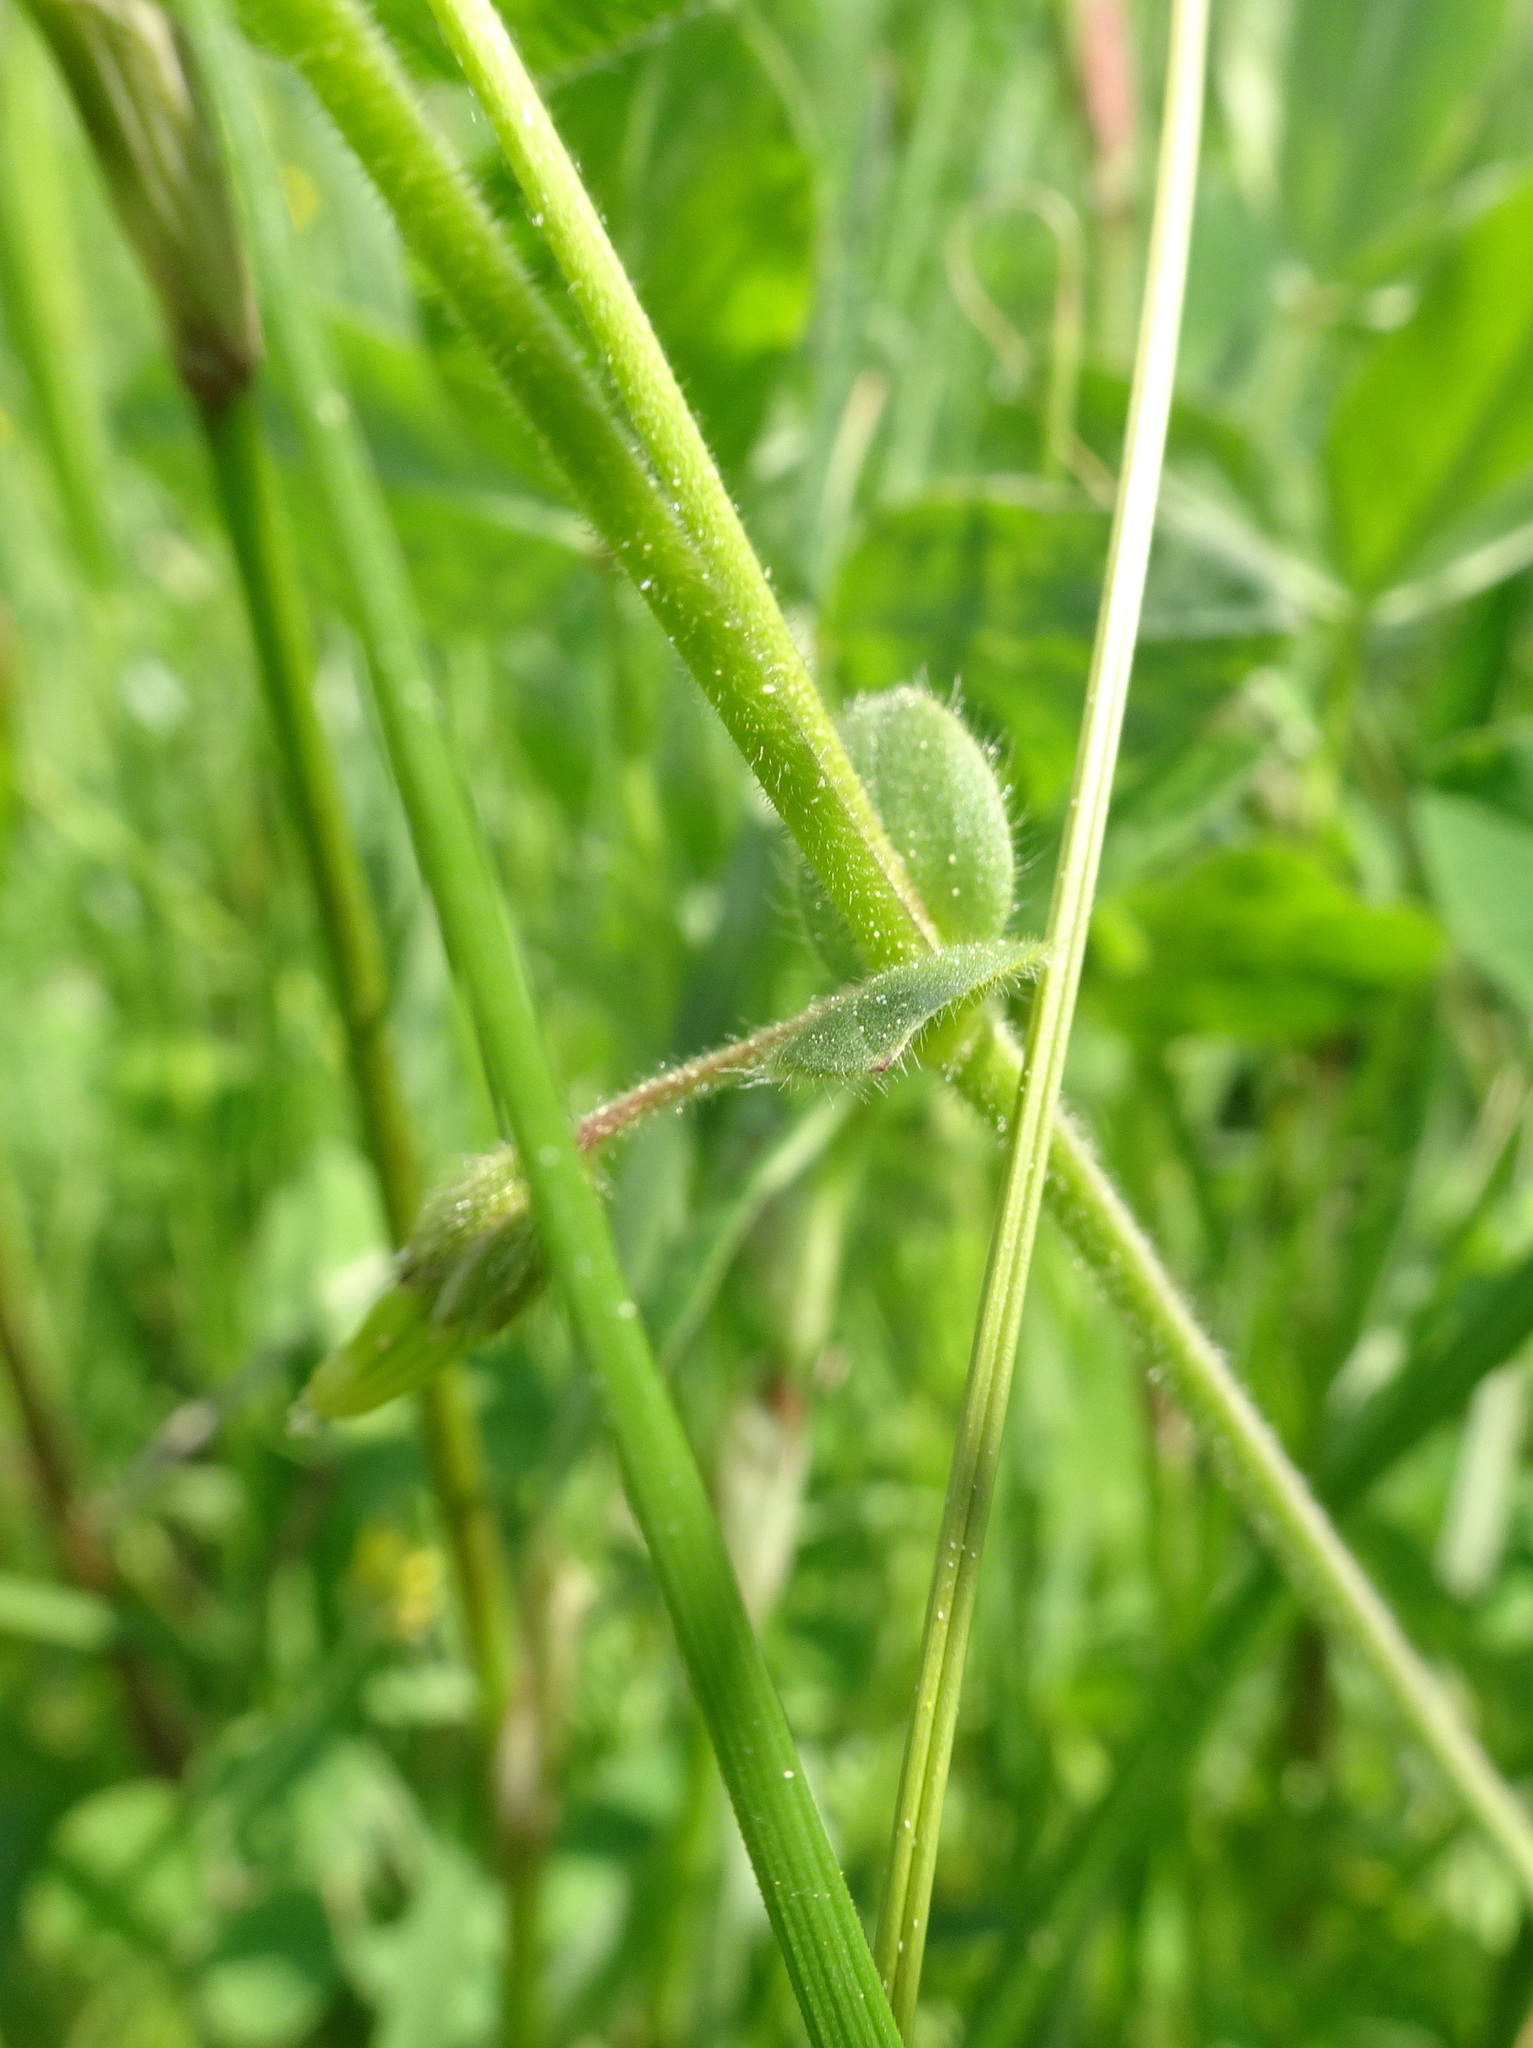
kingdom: Plantae
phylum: Tracheophyta
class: Magnoliopsida
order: Caryophyllales
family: Caryophyllaceae
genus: Cerastium
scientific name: Cerastium holosteoides
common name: Big chickweed
